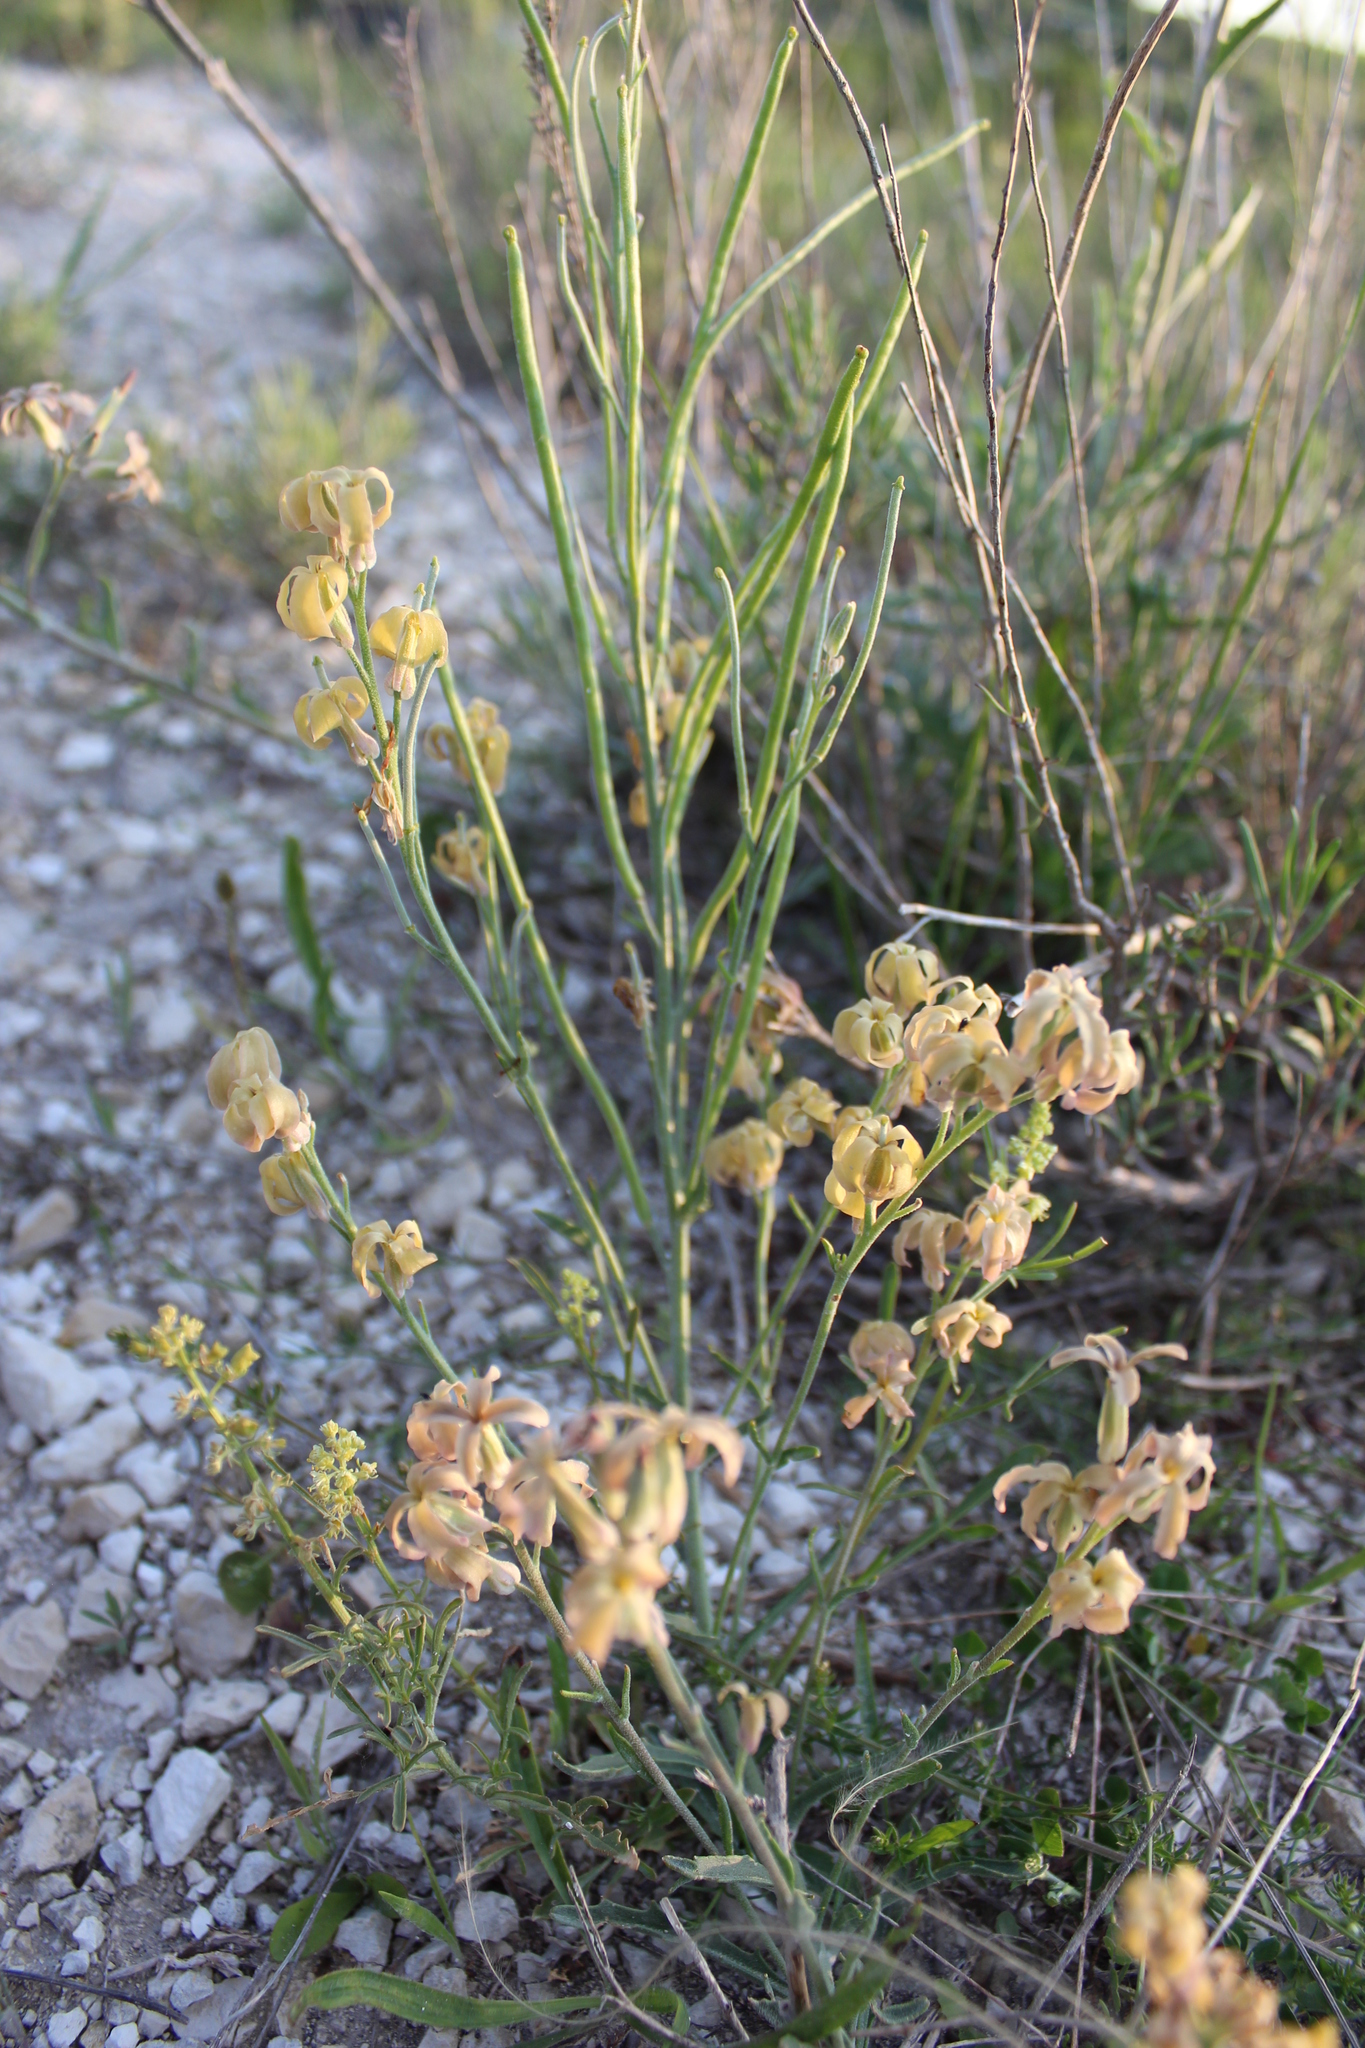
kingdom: Plantae
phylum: Tracheophyta
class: Magnoliopsida
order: Brassicales
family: Brassicaceae
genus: Matthiola
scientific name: Matthiola fragrans
